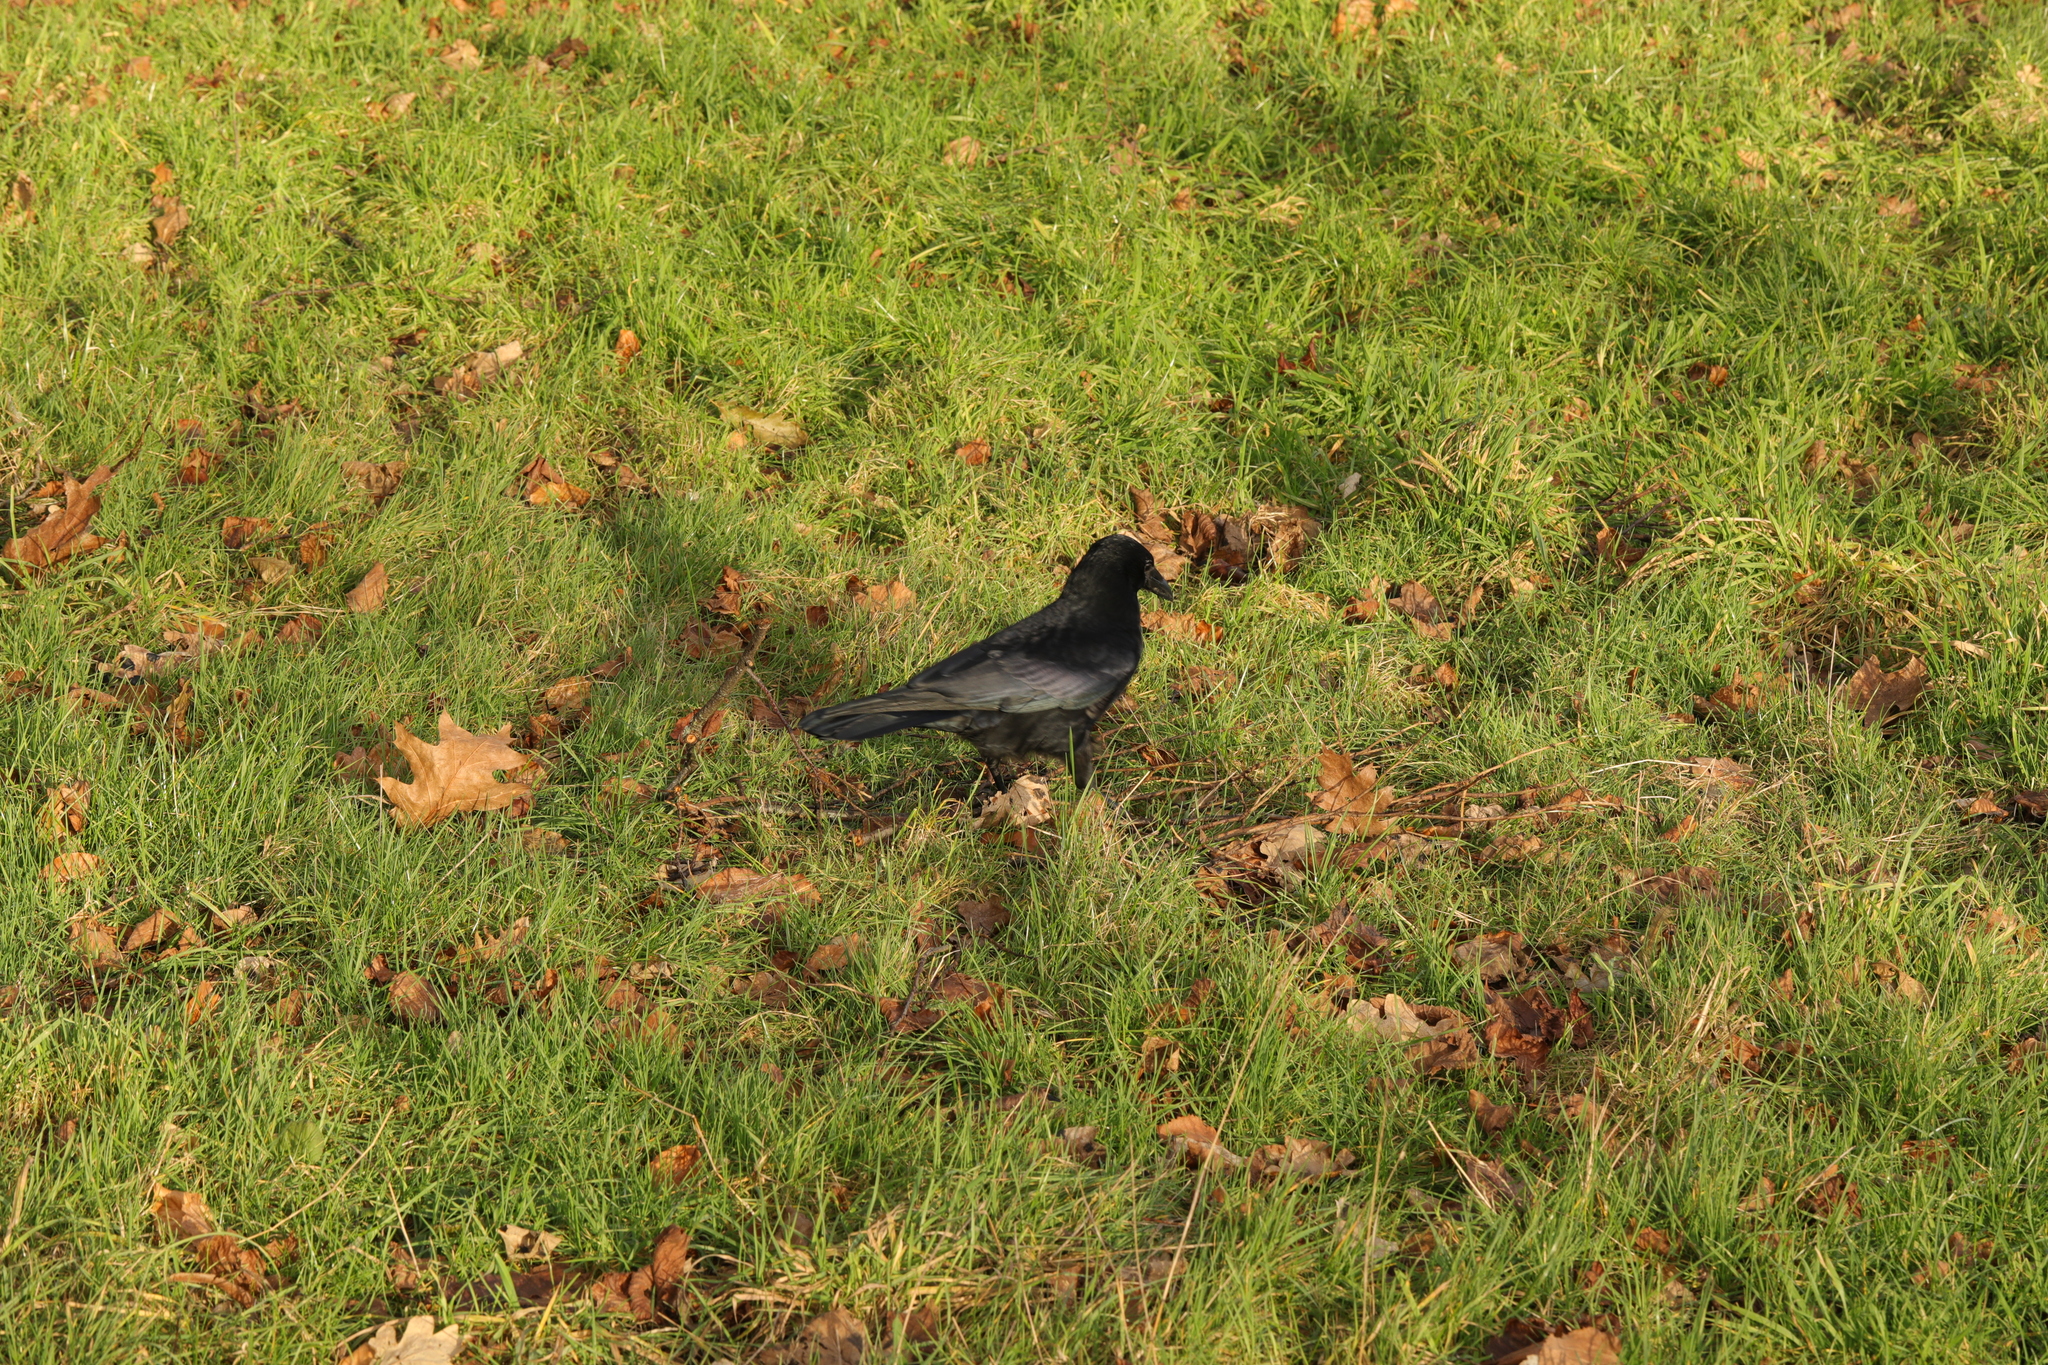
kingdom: Animalia
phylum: Chordata
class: Aves
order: Passeriformes
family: Corvidae
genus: Corvus
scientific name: Corvus corone
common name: Carrion crow
